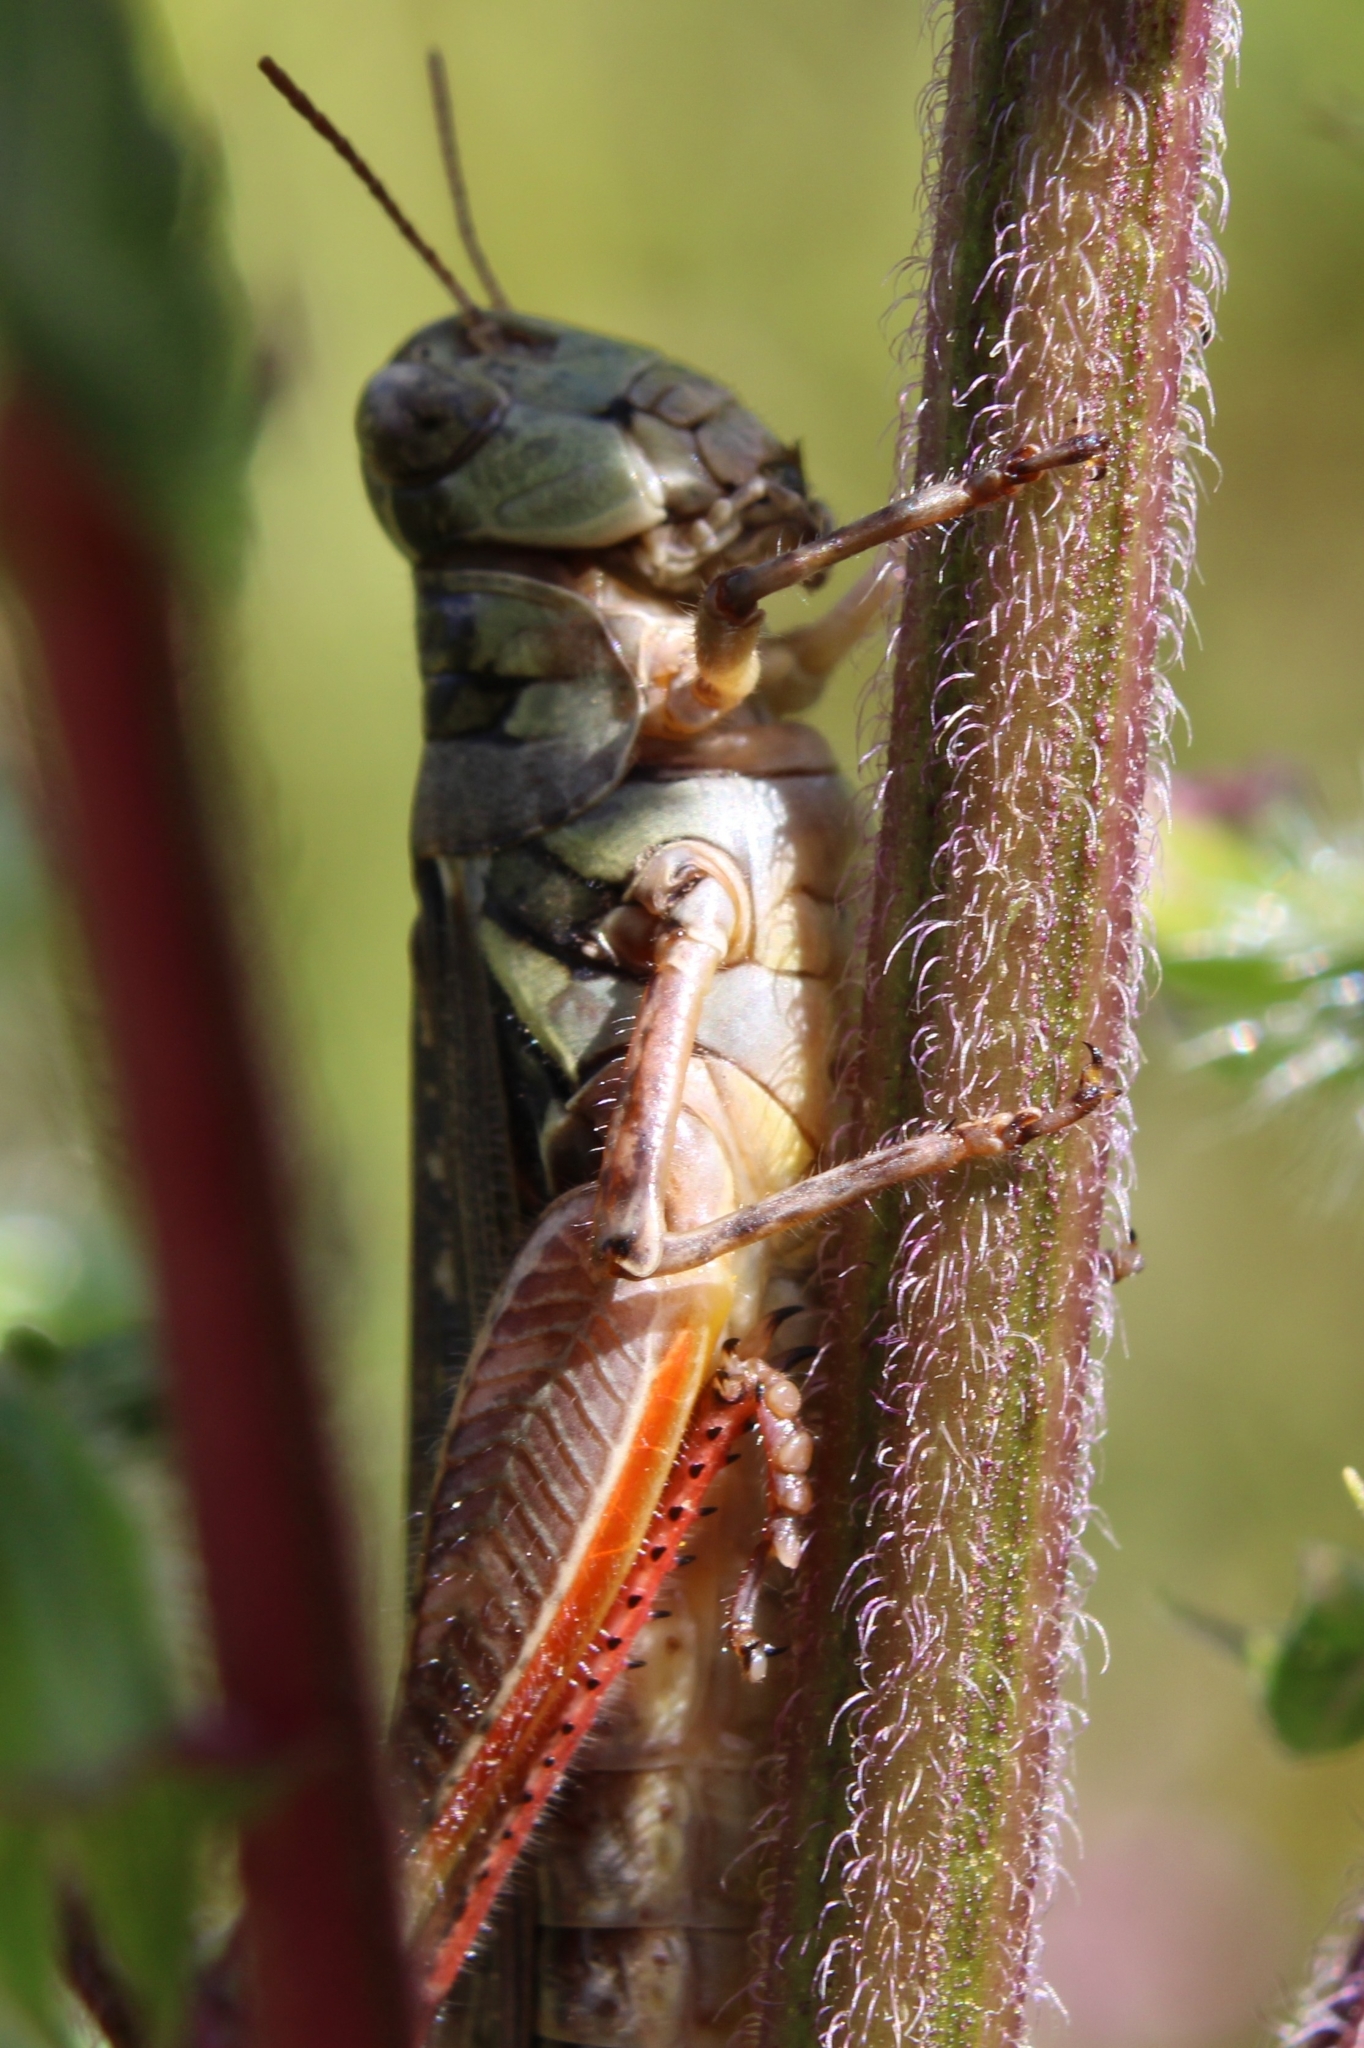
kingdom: Animalia
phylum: Arthropoda
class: Insecta
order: Orthoptera
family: Acrididae
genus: Melanoplus
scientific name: Melanoplus femurrubrum
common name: Red-legged grasshopper
